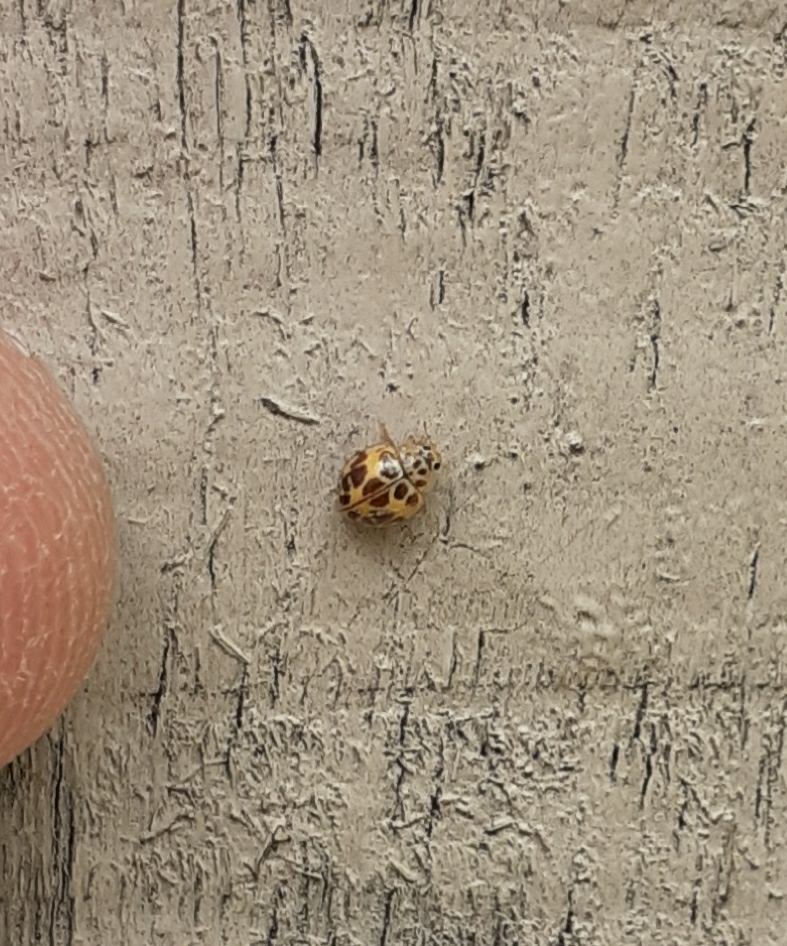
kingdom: Animalia
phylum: Arthropoda
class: Insecta
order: Coleoptera
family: Coccinellidae
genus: Psyllobora
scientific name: Psyllobora
